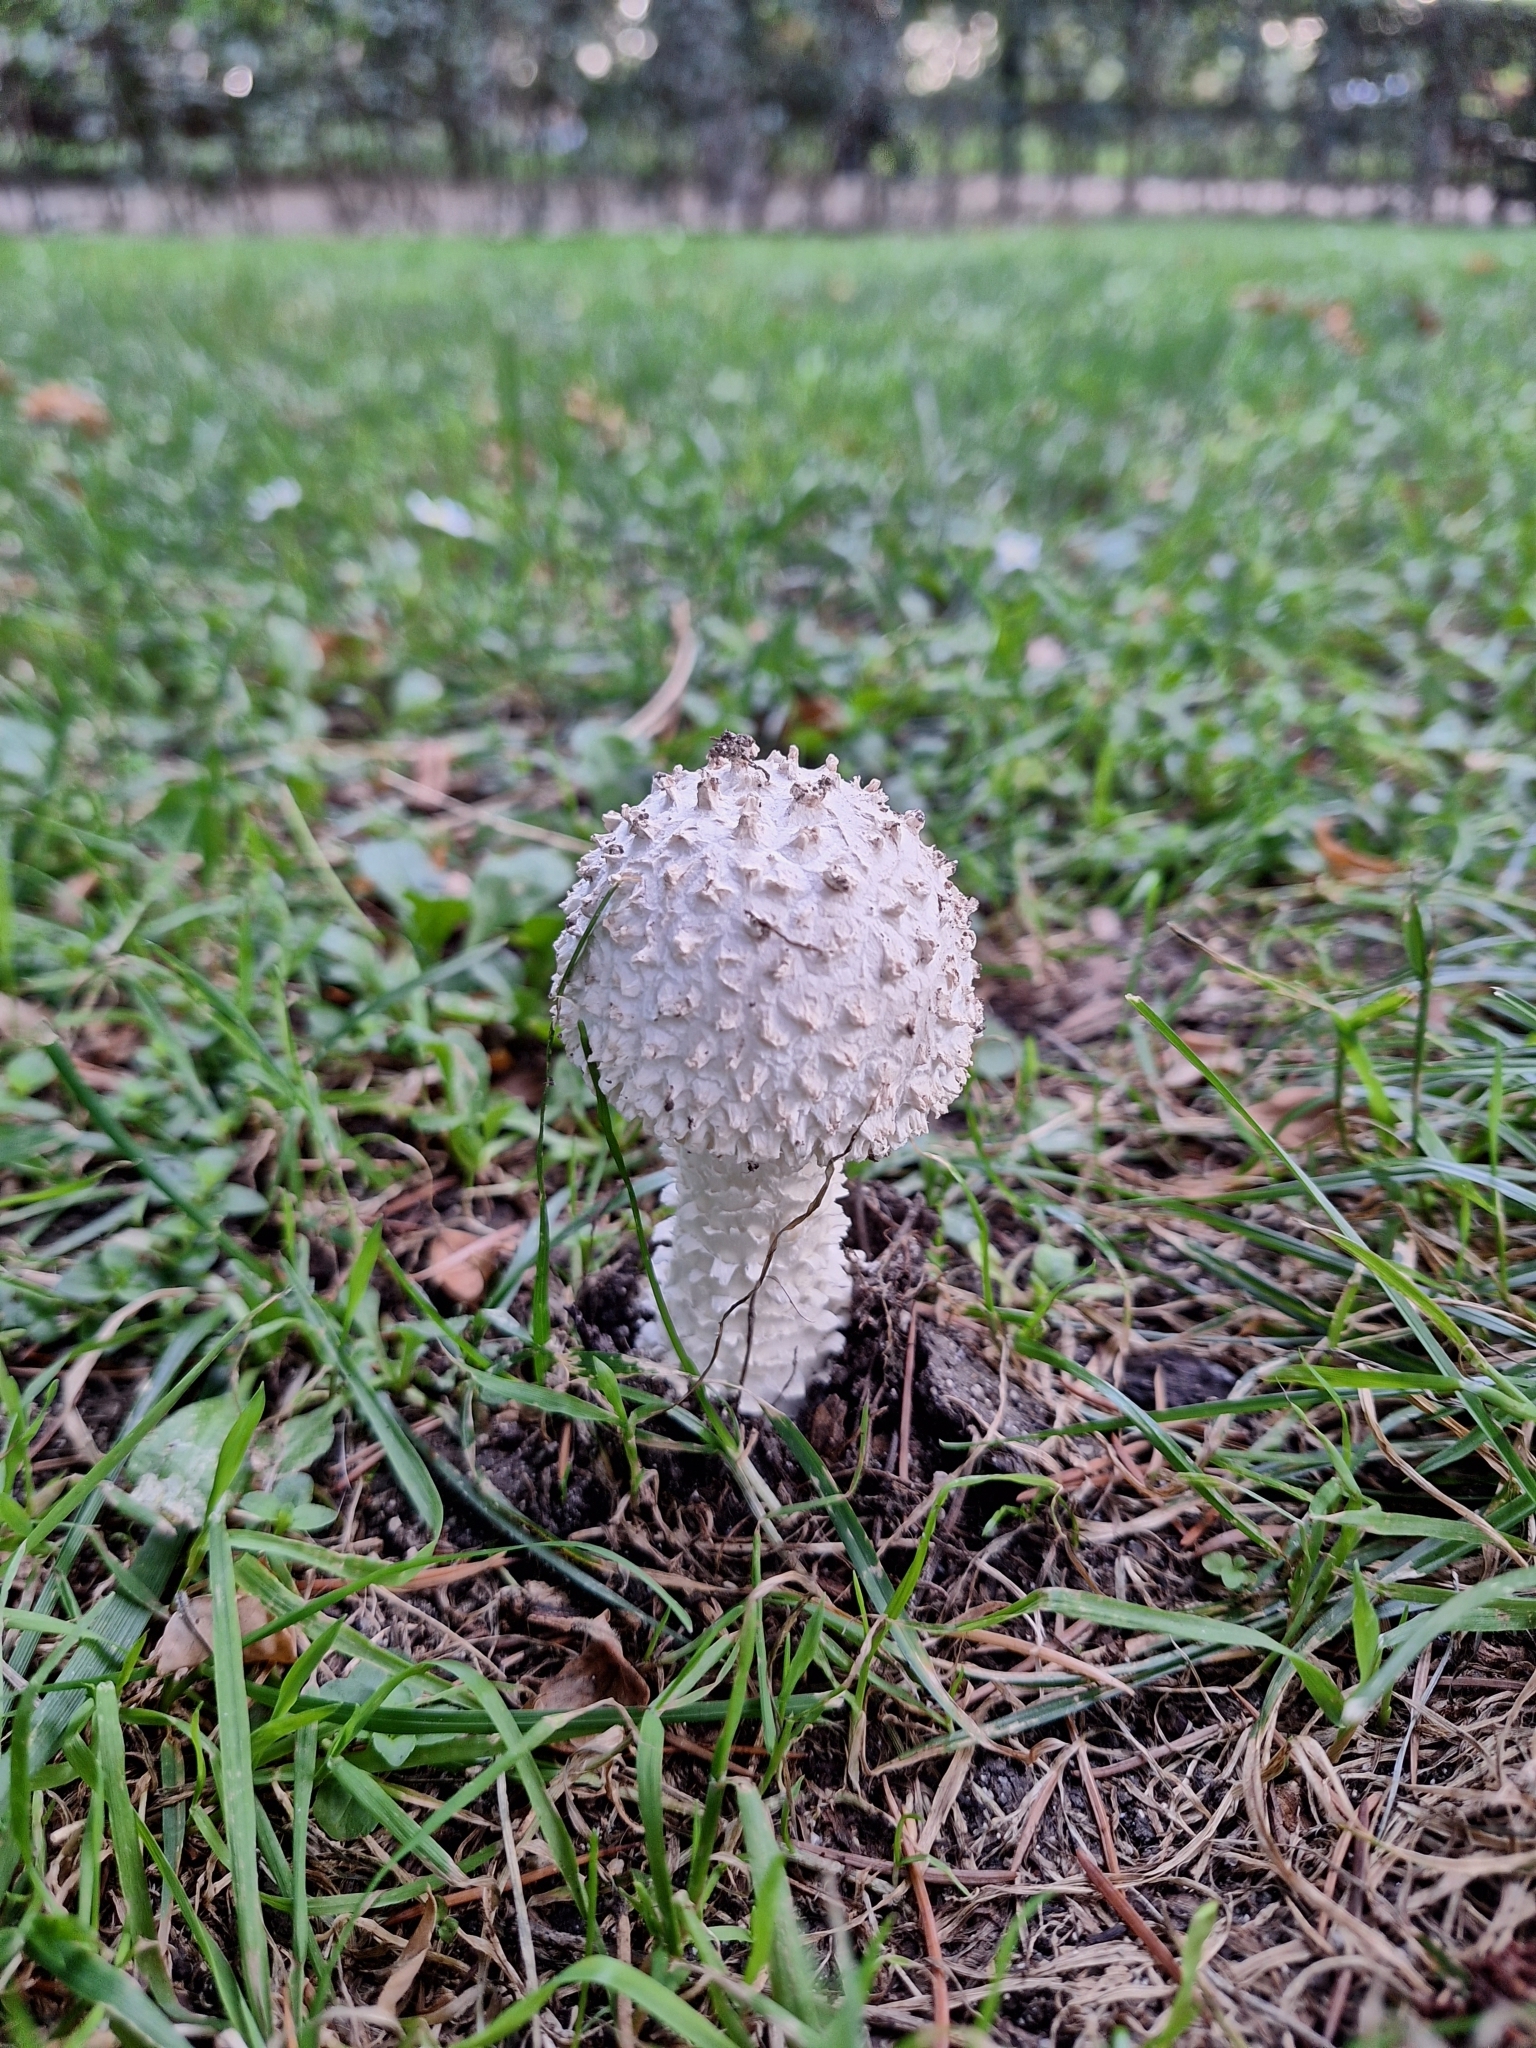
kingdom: Fungi
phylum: Basidiomycota
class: Agaricomycetes
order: Agaricales
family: Amanitaceae
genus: Amanita
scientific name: Amanita vittadinii
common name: Barefoot amanita
